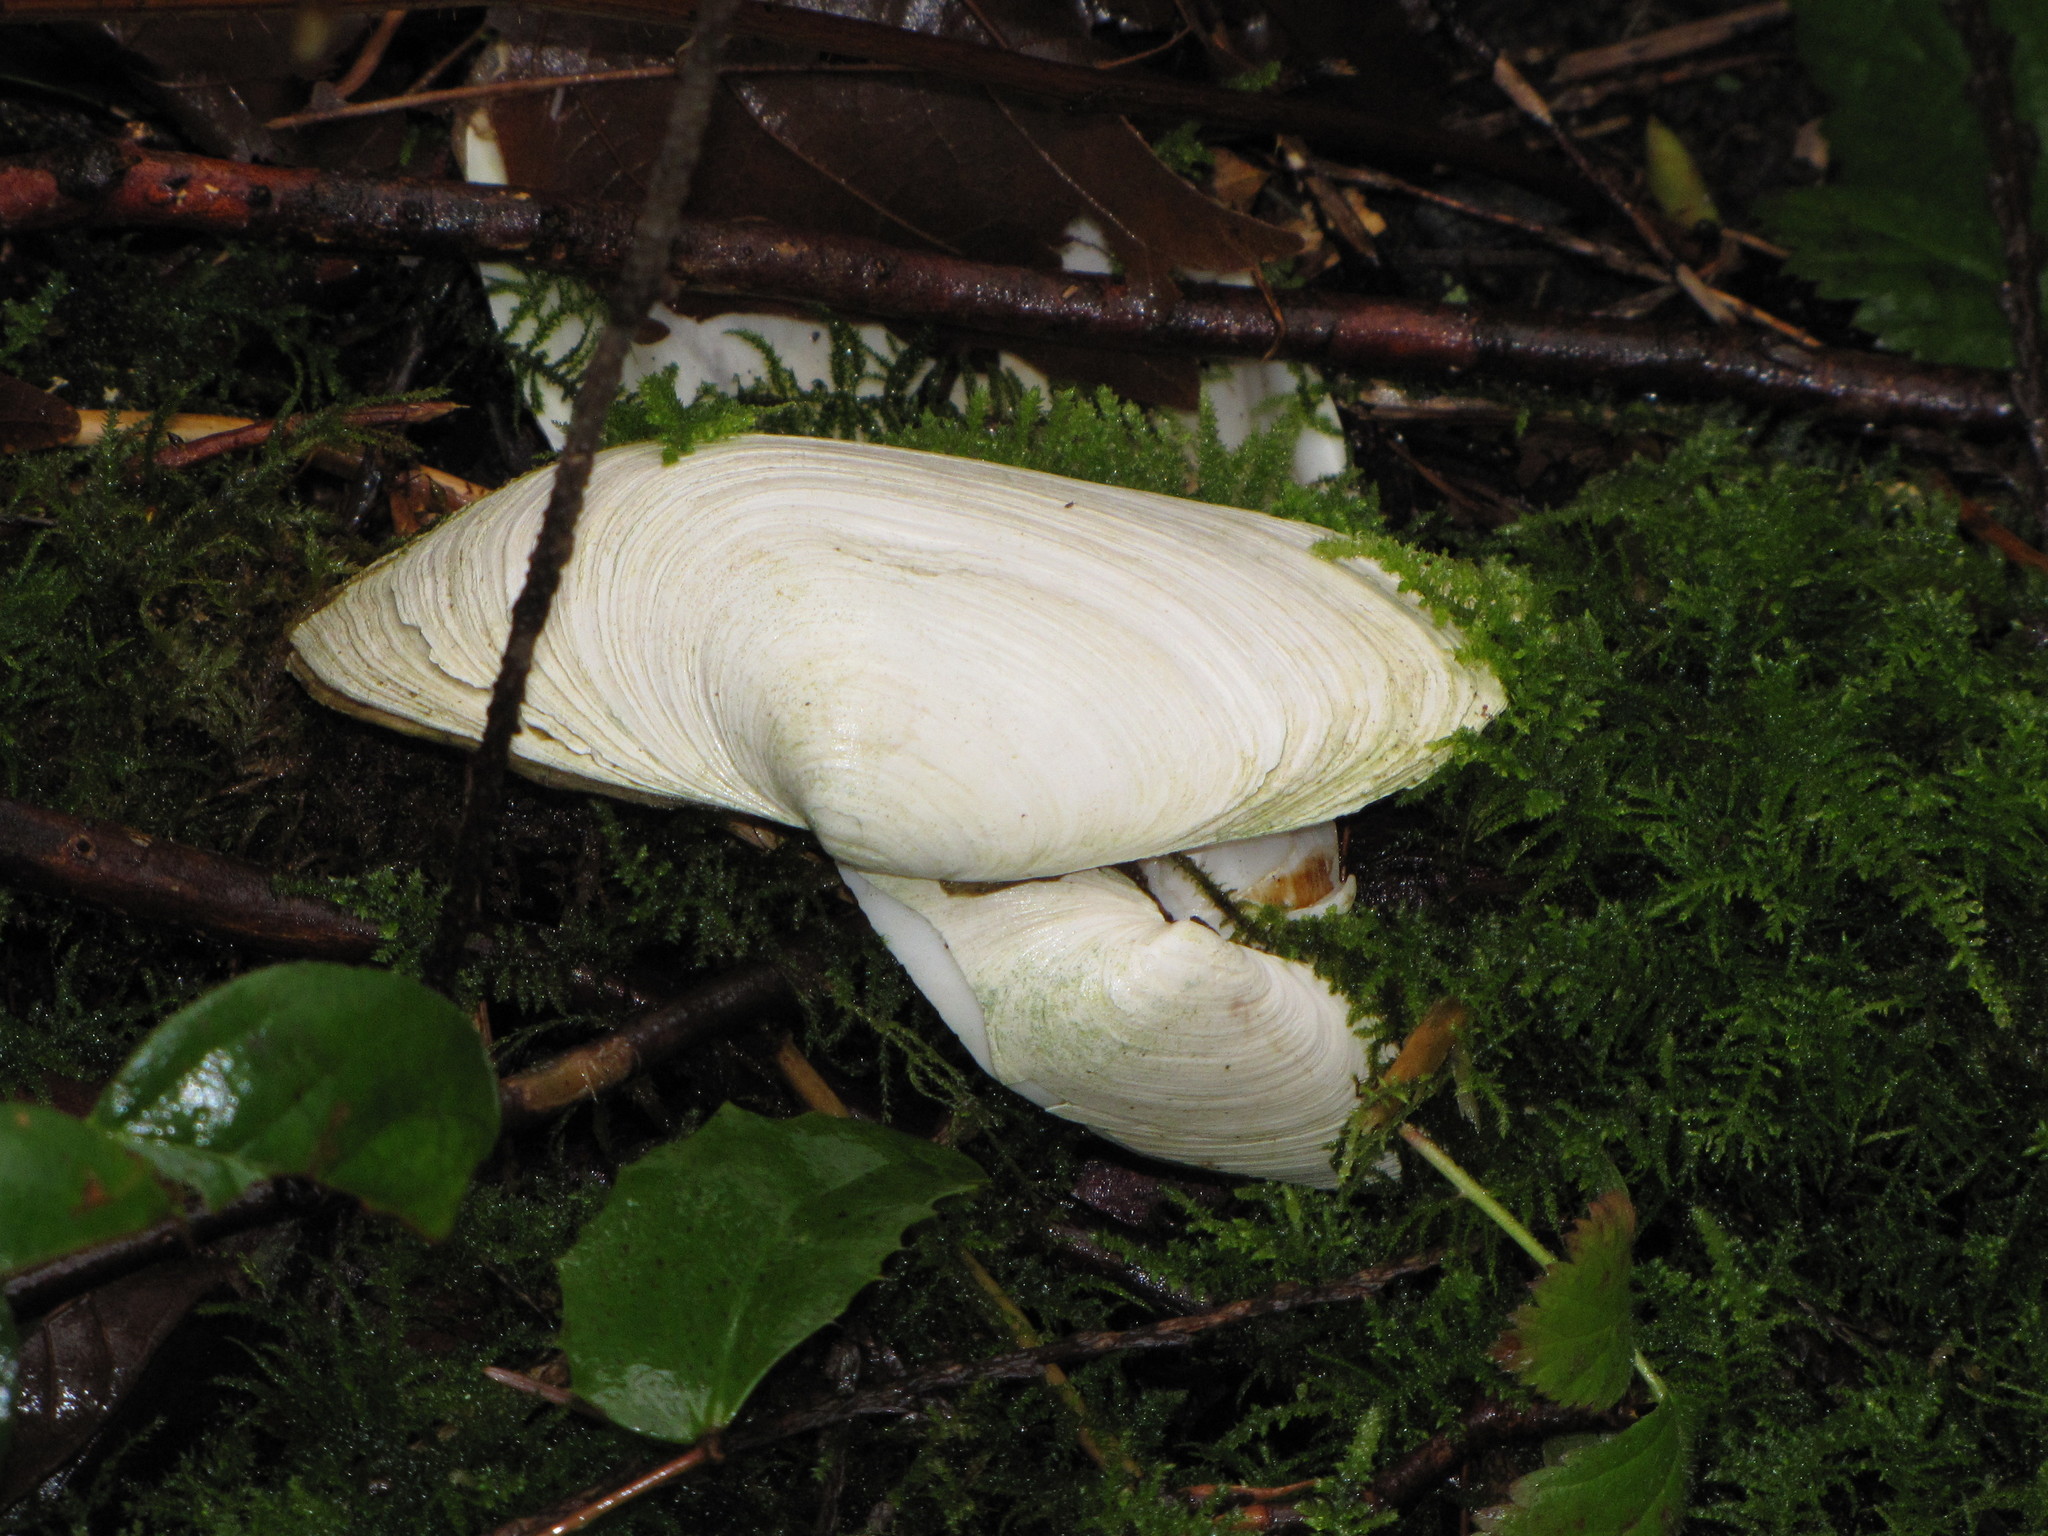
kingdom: Animalia
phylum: Mollusca
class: Bivalvia
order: Myida
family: Myidae
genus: Mya
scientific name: Mya arenaria
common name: Soft-shelled clam
